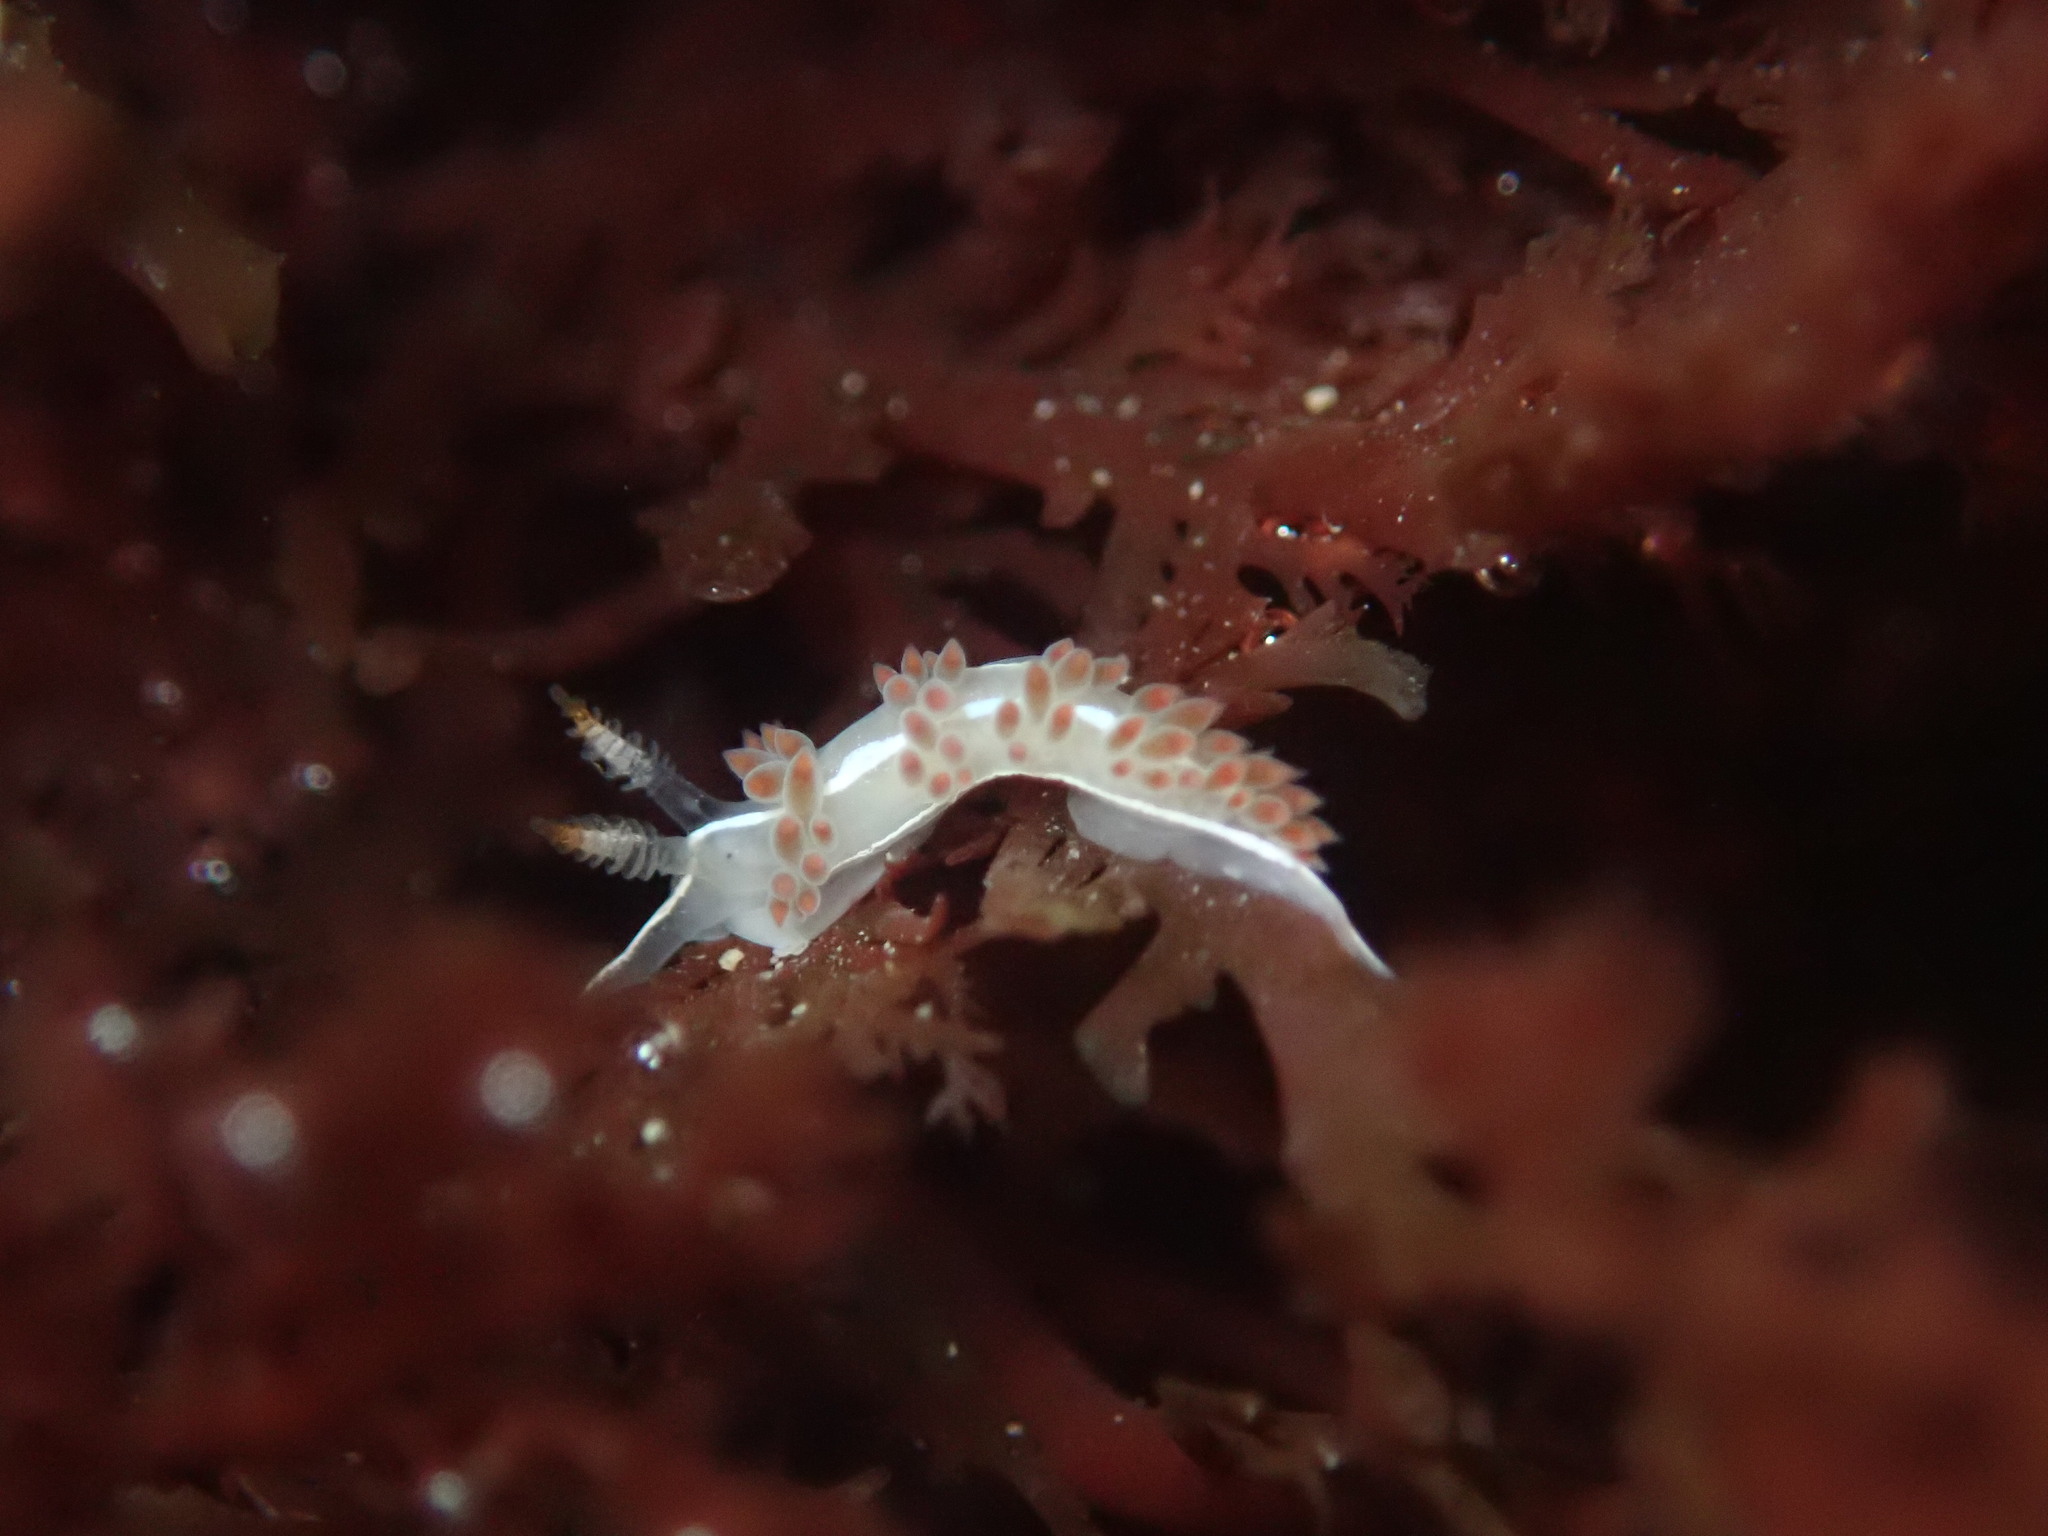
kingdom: Animalia
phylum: Mollusca
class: Gastropoda
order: Nudibranchia
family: Coryphellidae
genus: Coryphella
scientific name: Coryphella trilineata
